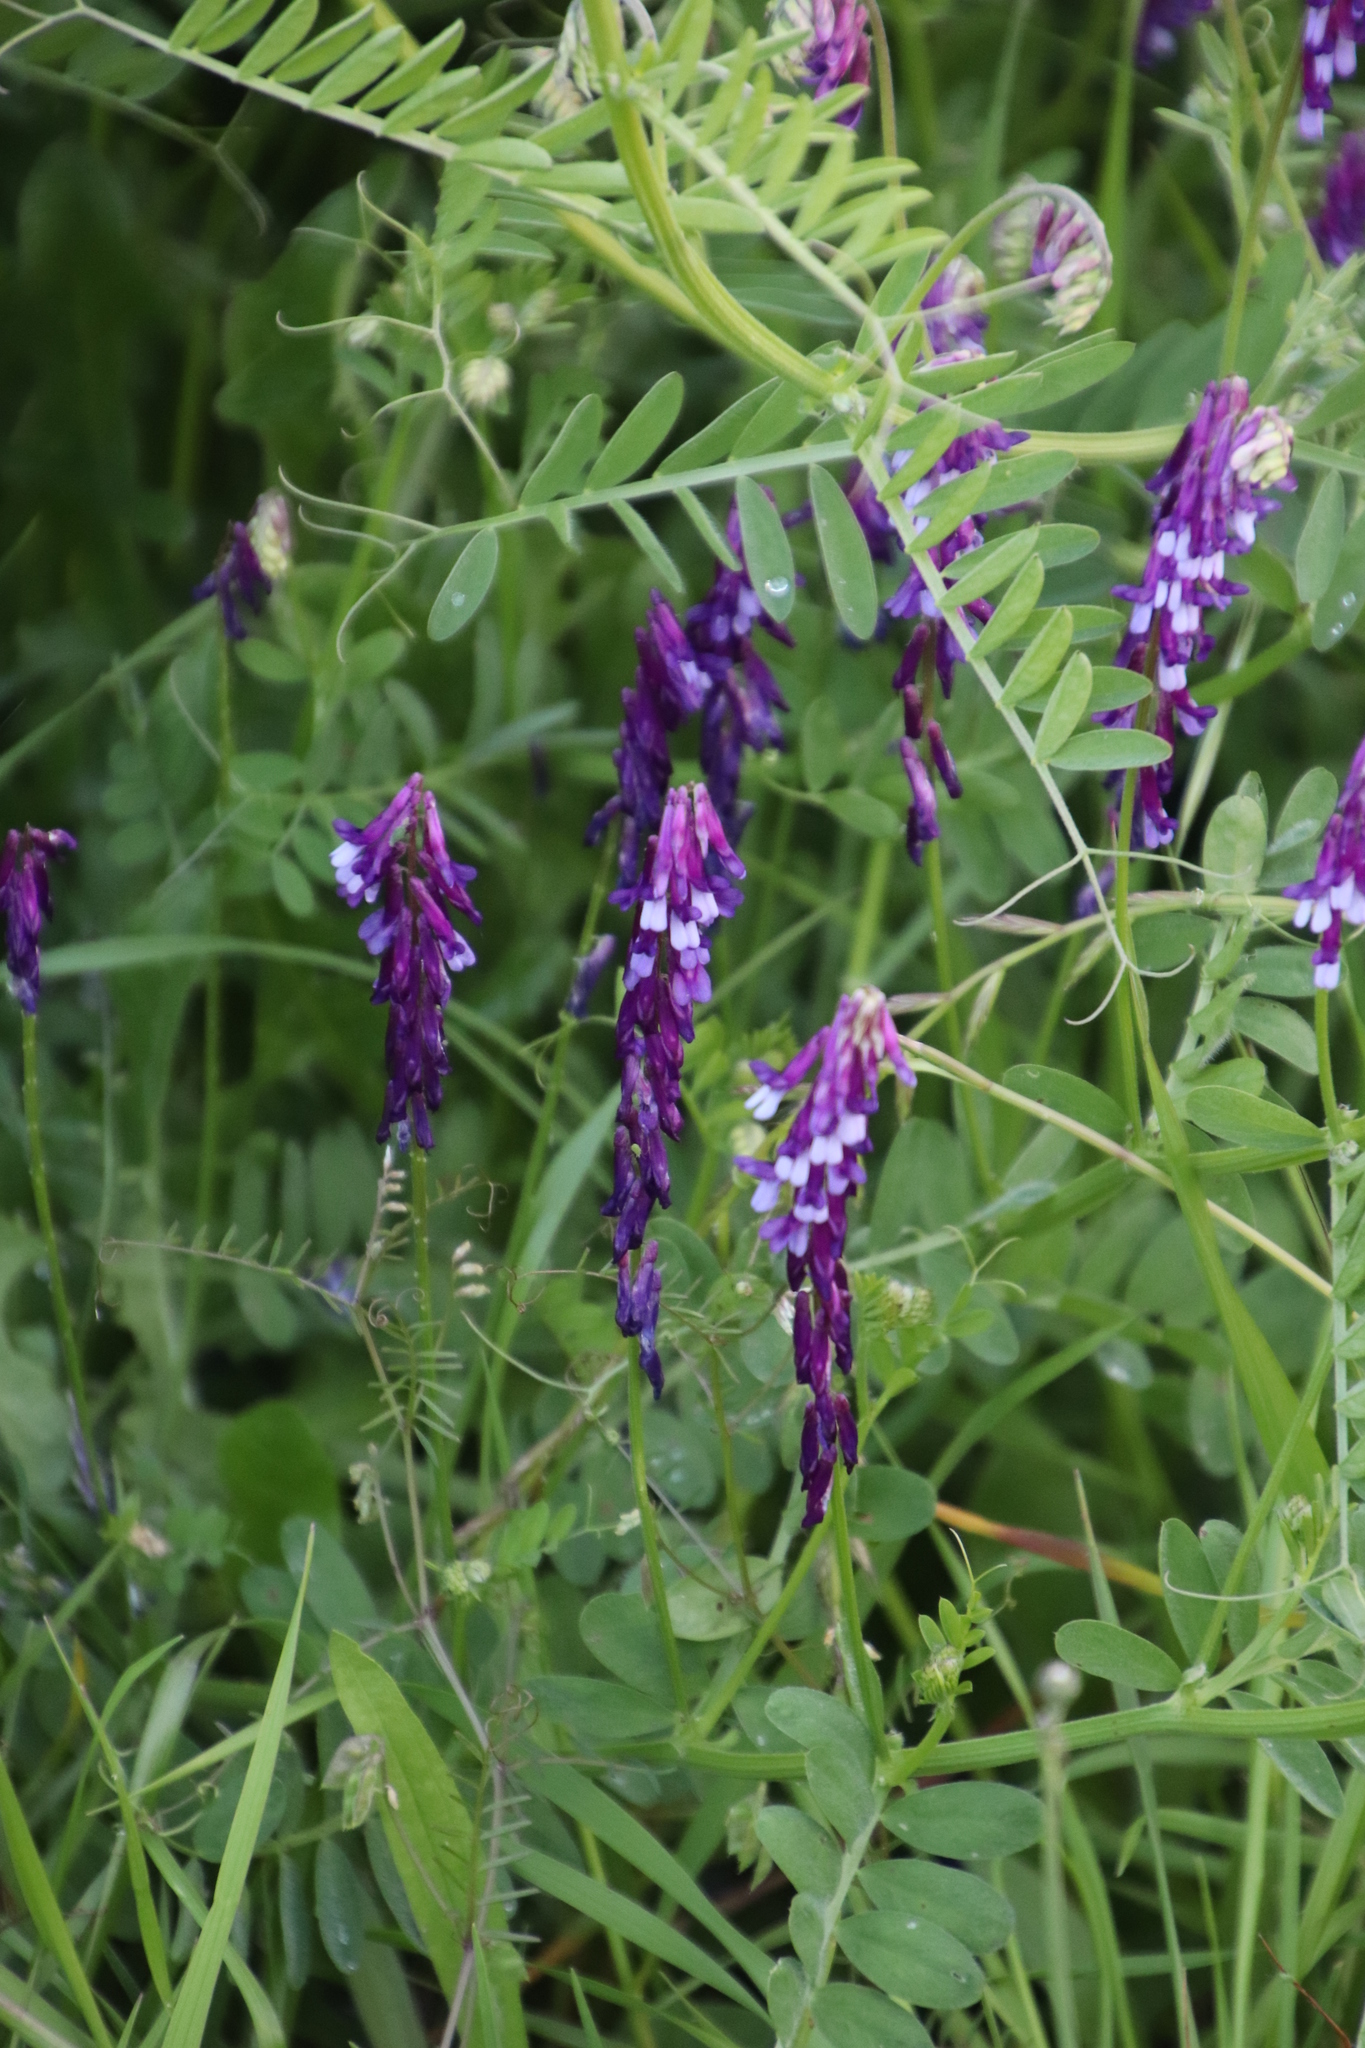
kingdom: Plantae
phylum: Tracheophyta
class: Magnoliopsida
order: Fabales
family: Fabaceae
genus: Vicia
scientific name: Vicia eriocarpa
